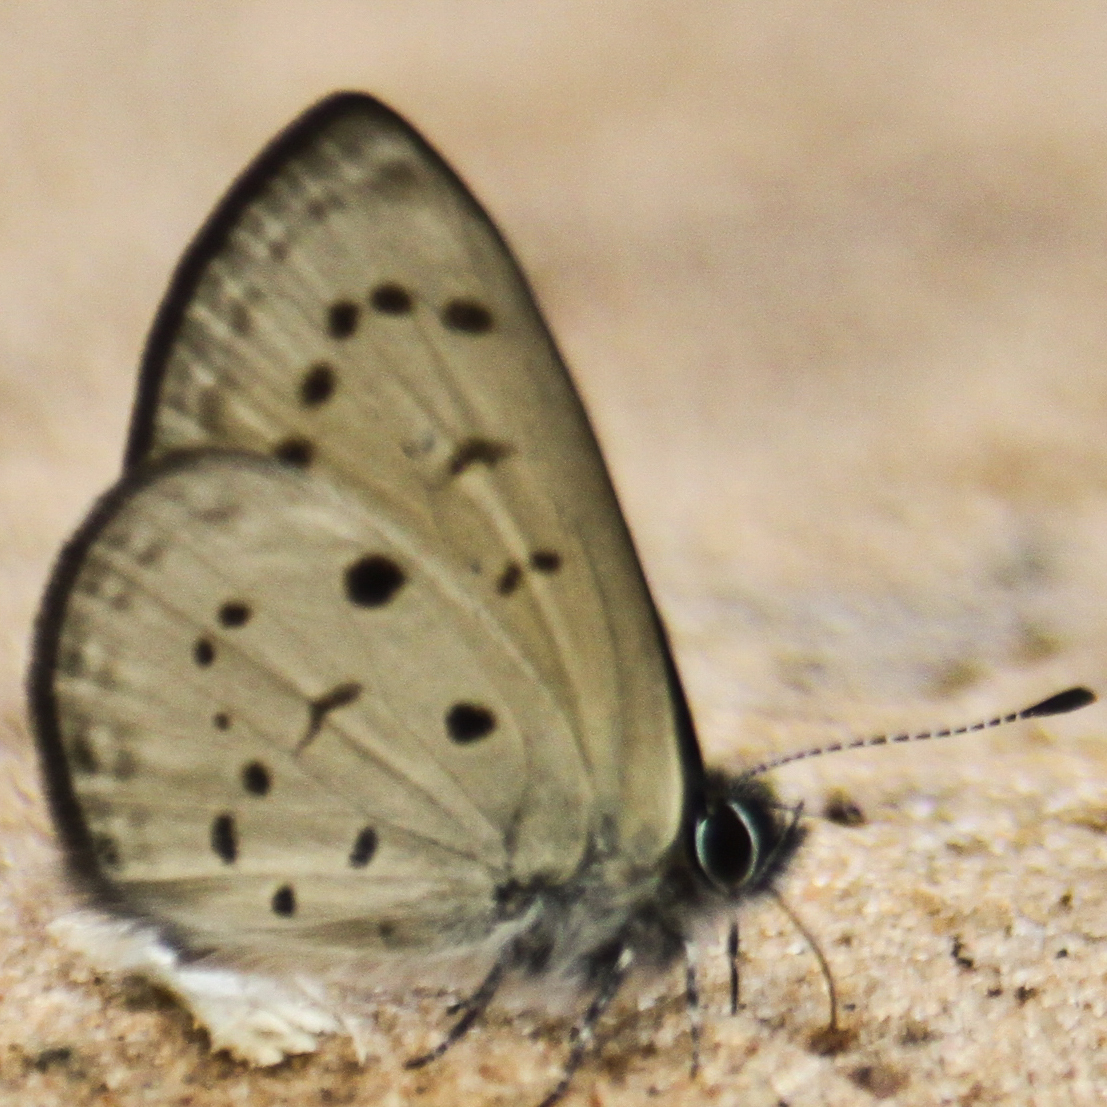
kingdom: Animalia
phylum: Arthropoda
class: Insecta
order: Lepidoptera
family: Lycaenidae
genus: Una
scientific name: Una usta
